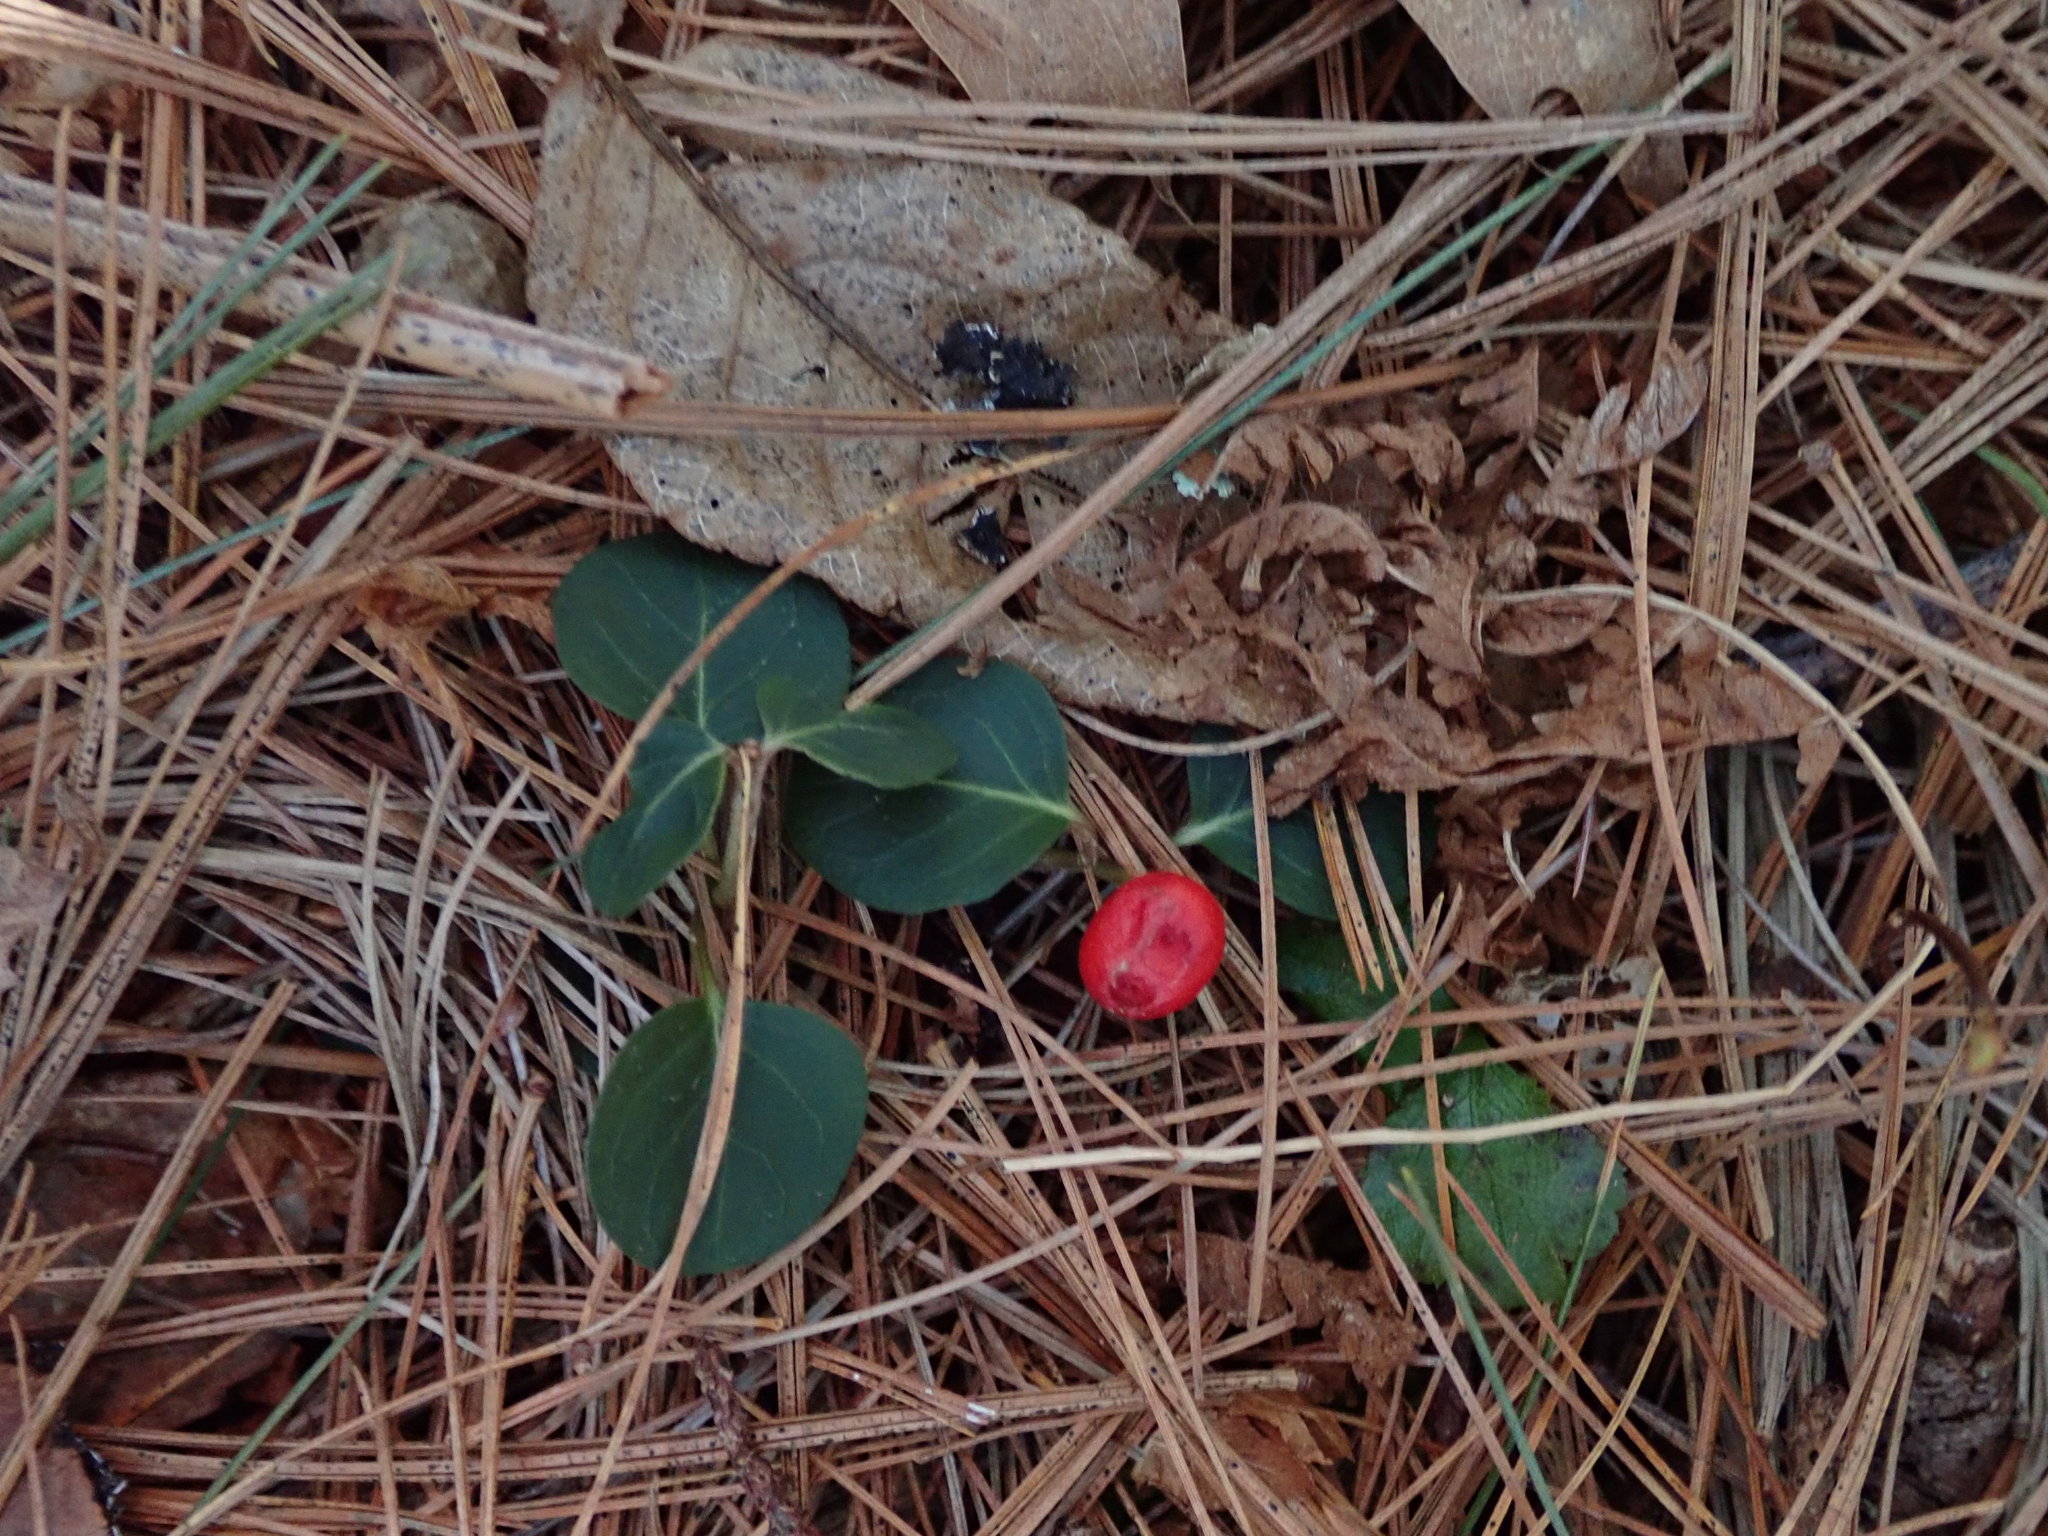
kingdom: Plantae
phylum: Tracheophyta
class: Magnoliopsida
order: Gentianales
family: Rubiaceae
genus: Mitchella
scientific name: Mitchella repens
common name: Partridge-berry
